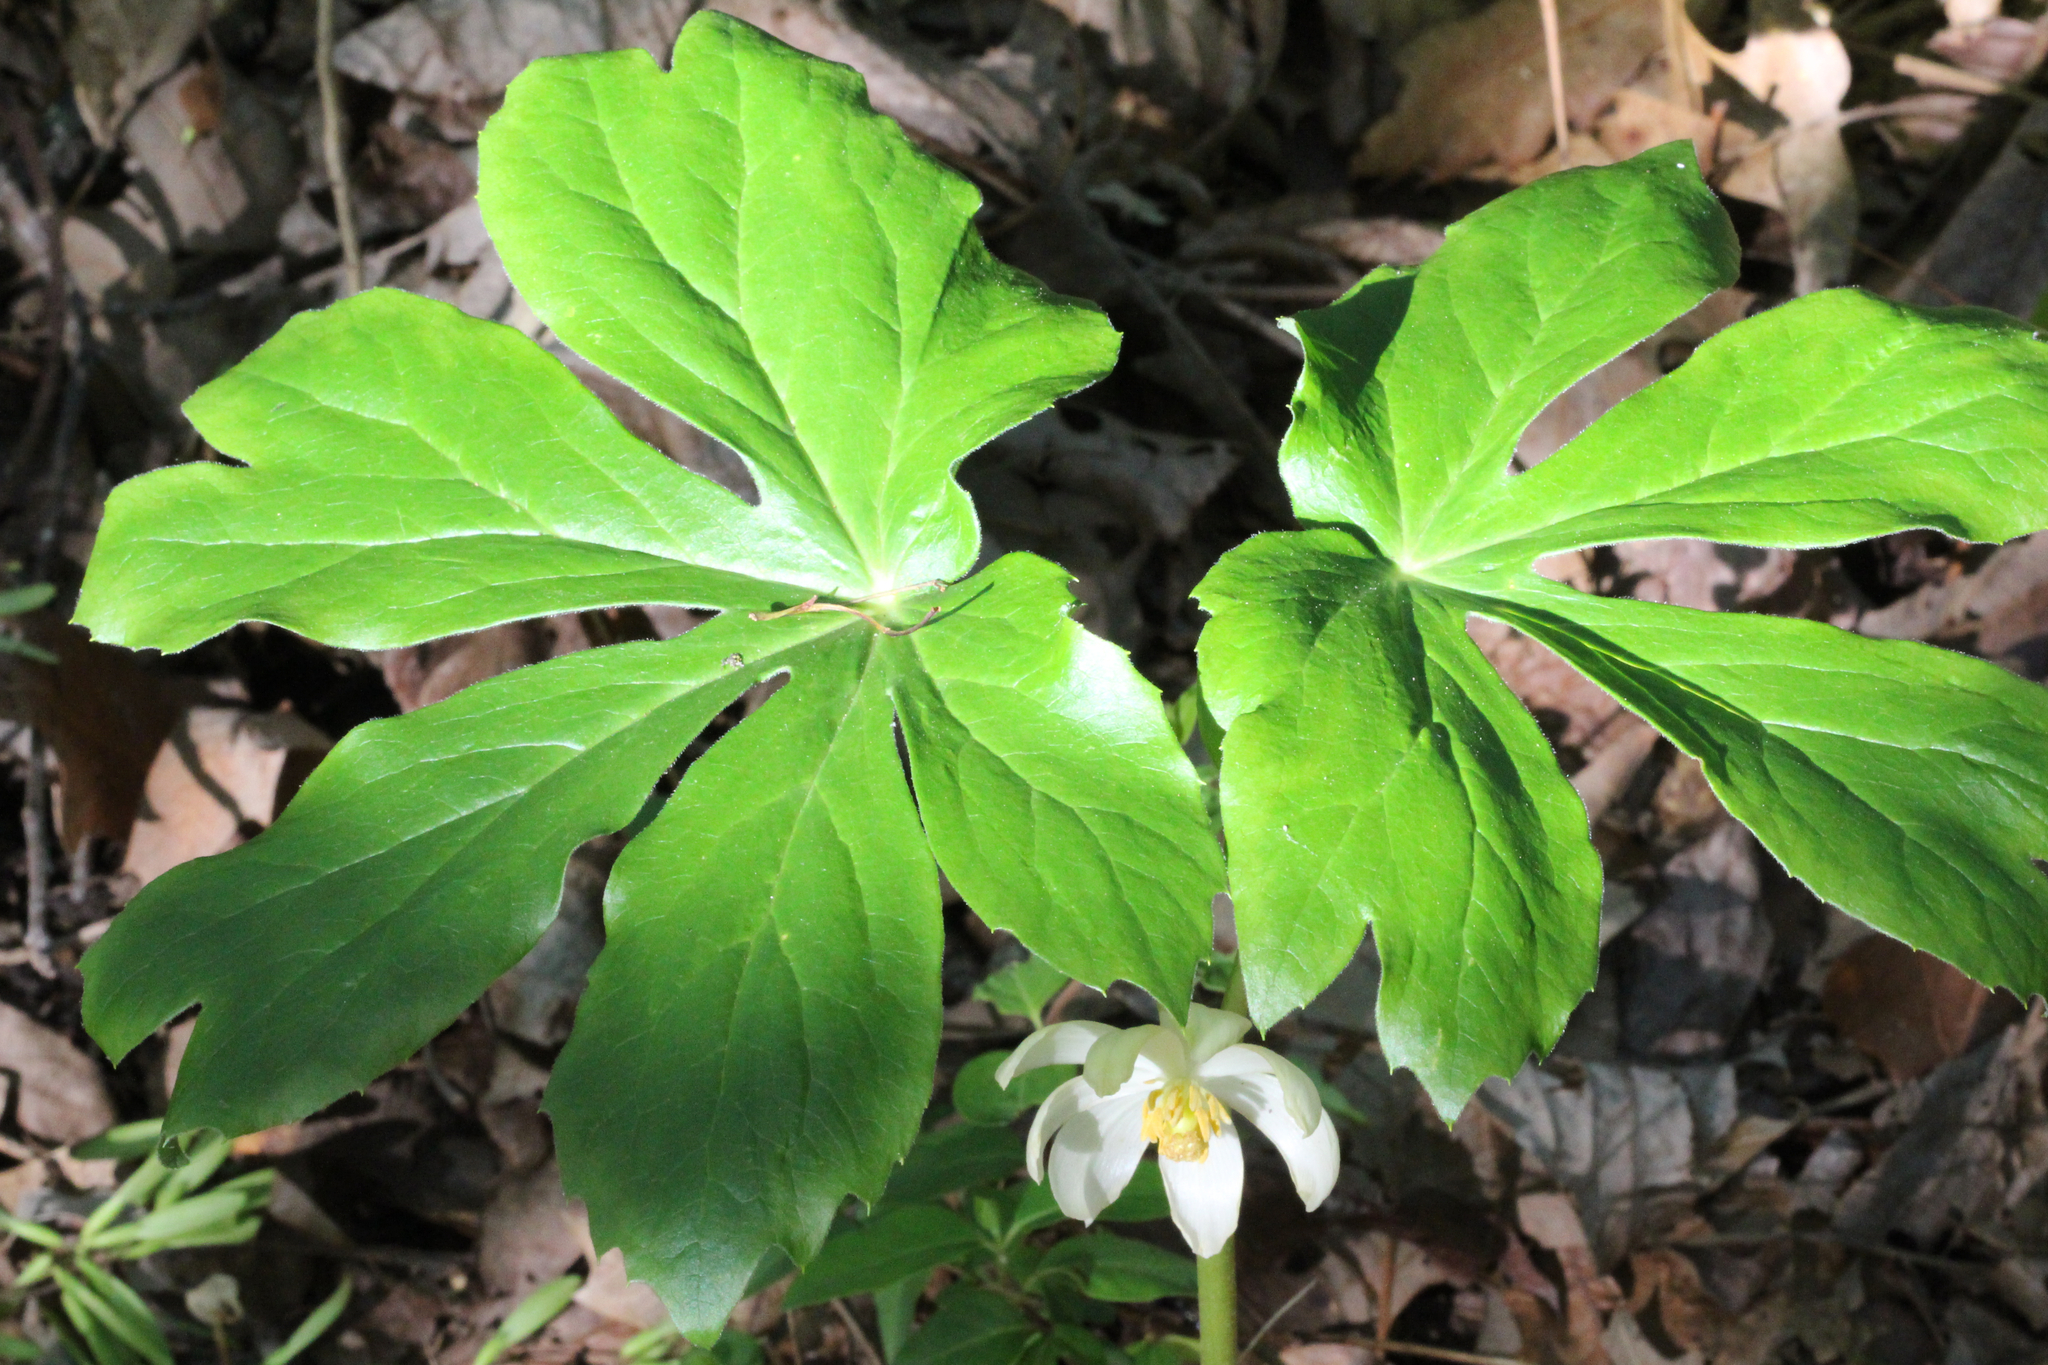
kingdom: Plantae
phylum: Tracheophyta
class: Magnoliopsida
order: Ranunculales
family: Berberidaceae
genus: Podophyllum
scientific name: Podophyllum peltatum
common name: Wild mandrake
